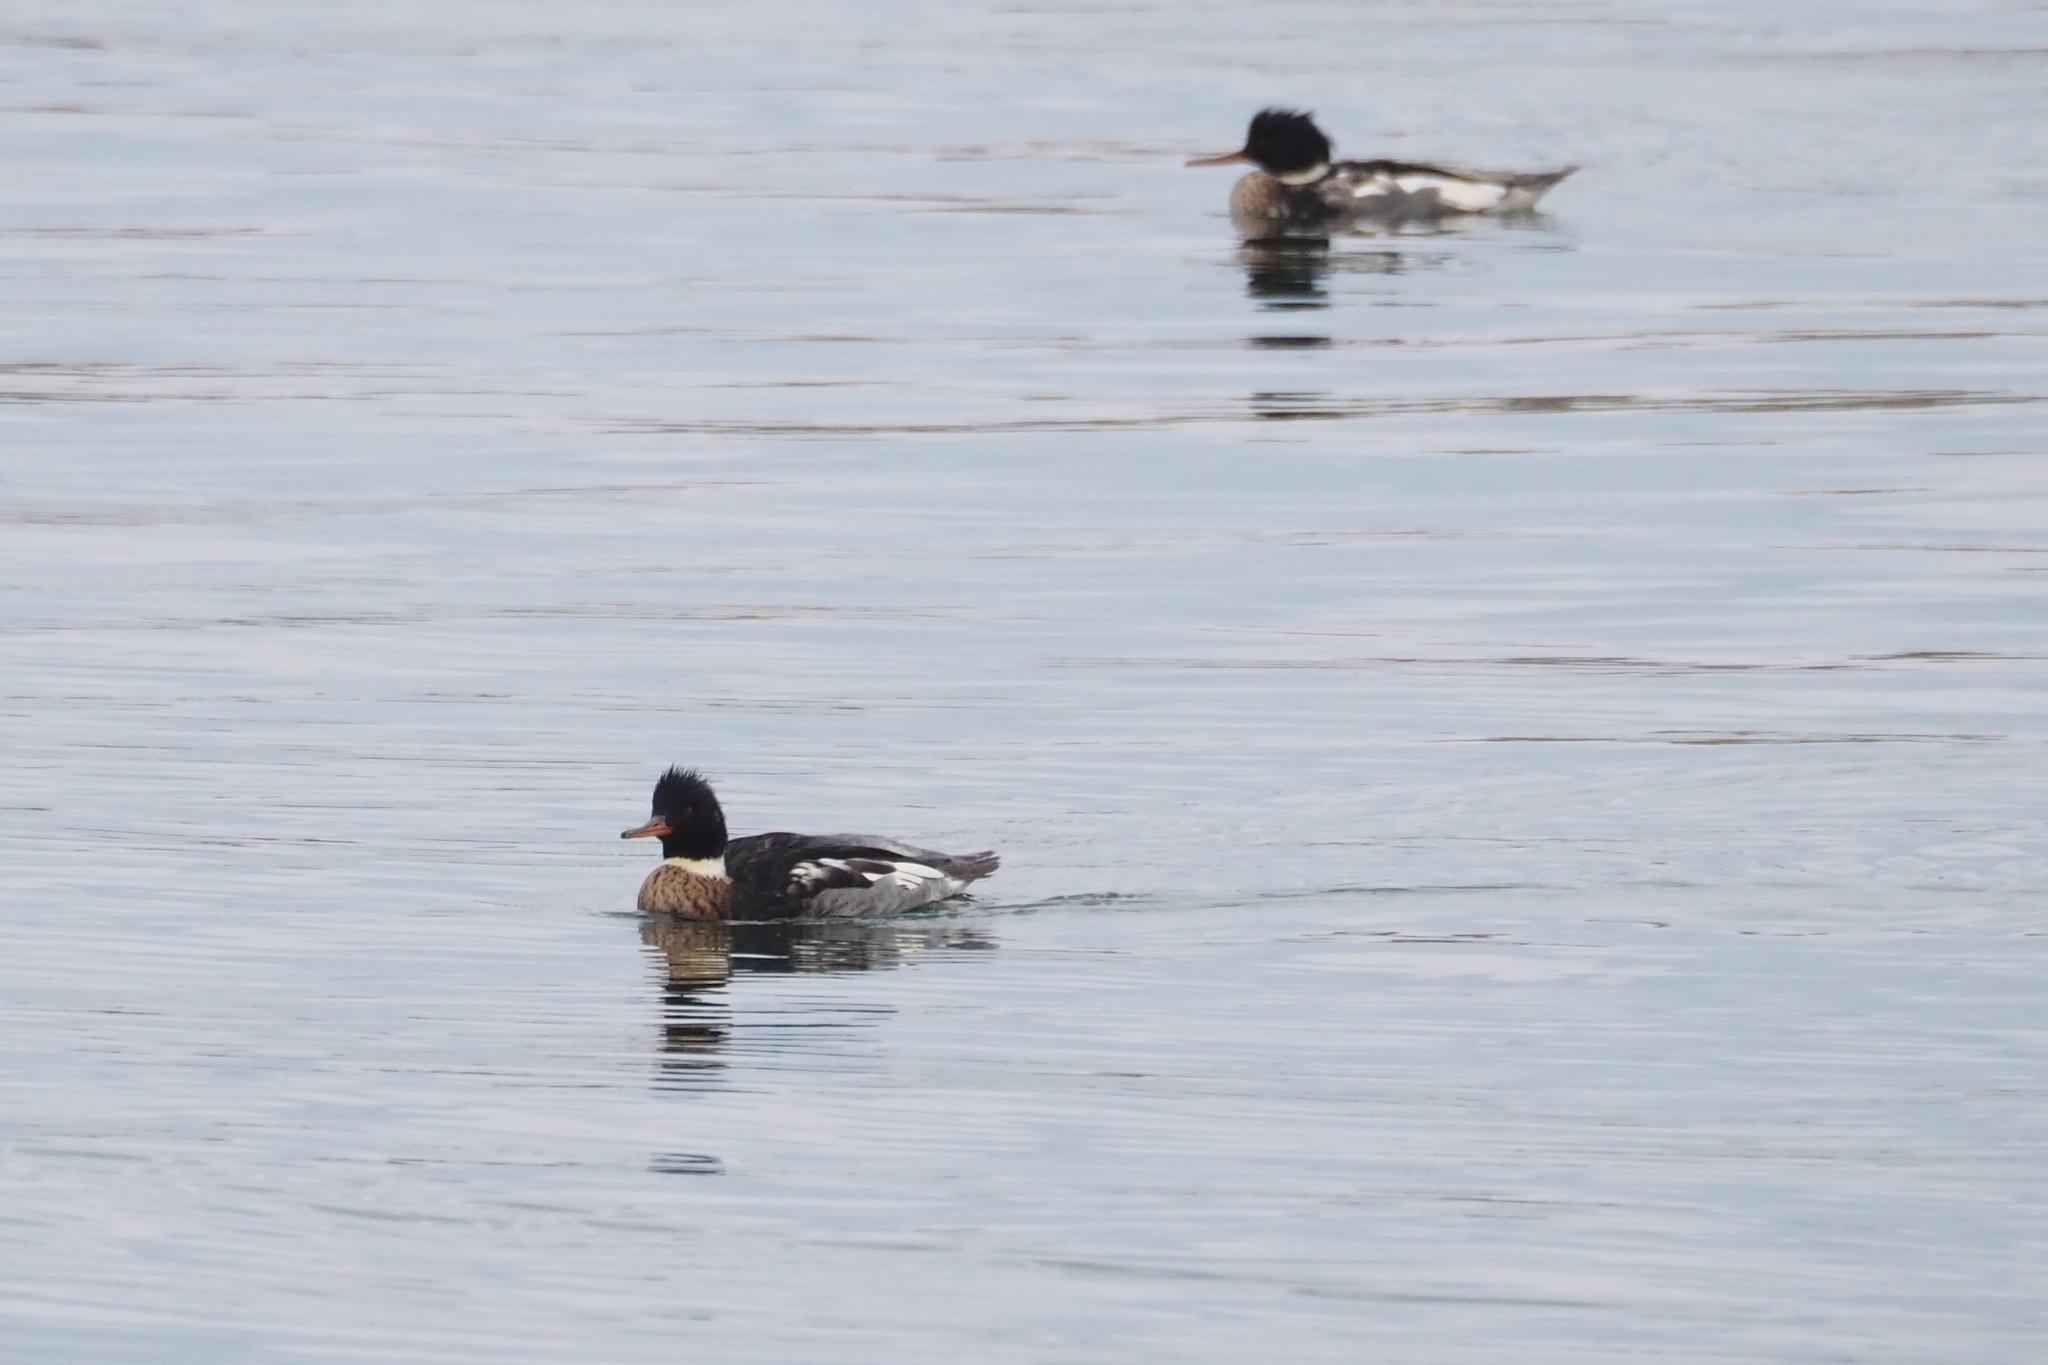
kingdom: Animalia
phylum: Chordata
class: Aves
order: Anseriformes
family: Anatidae
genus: Mergus
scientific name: Mergus serrator
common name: Red-breasted merganser
